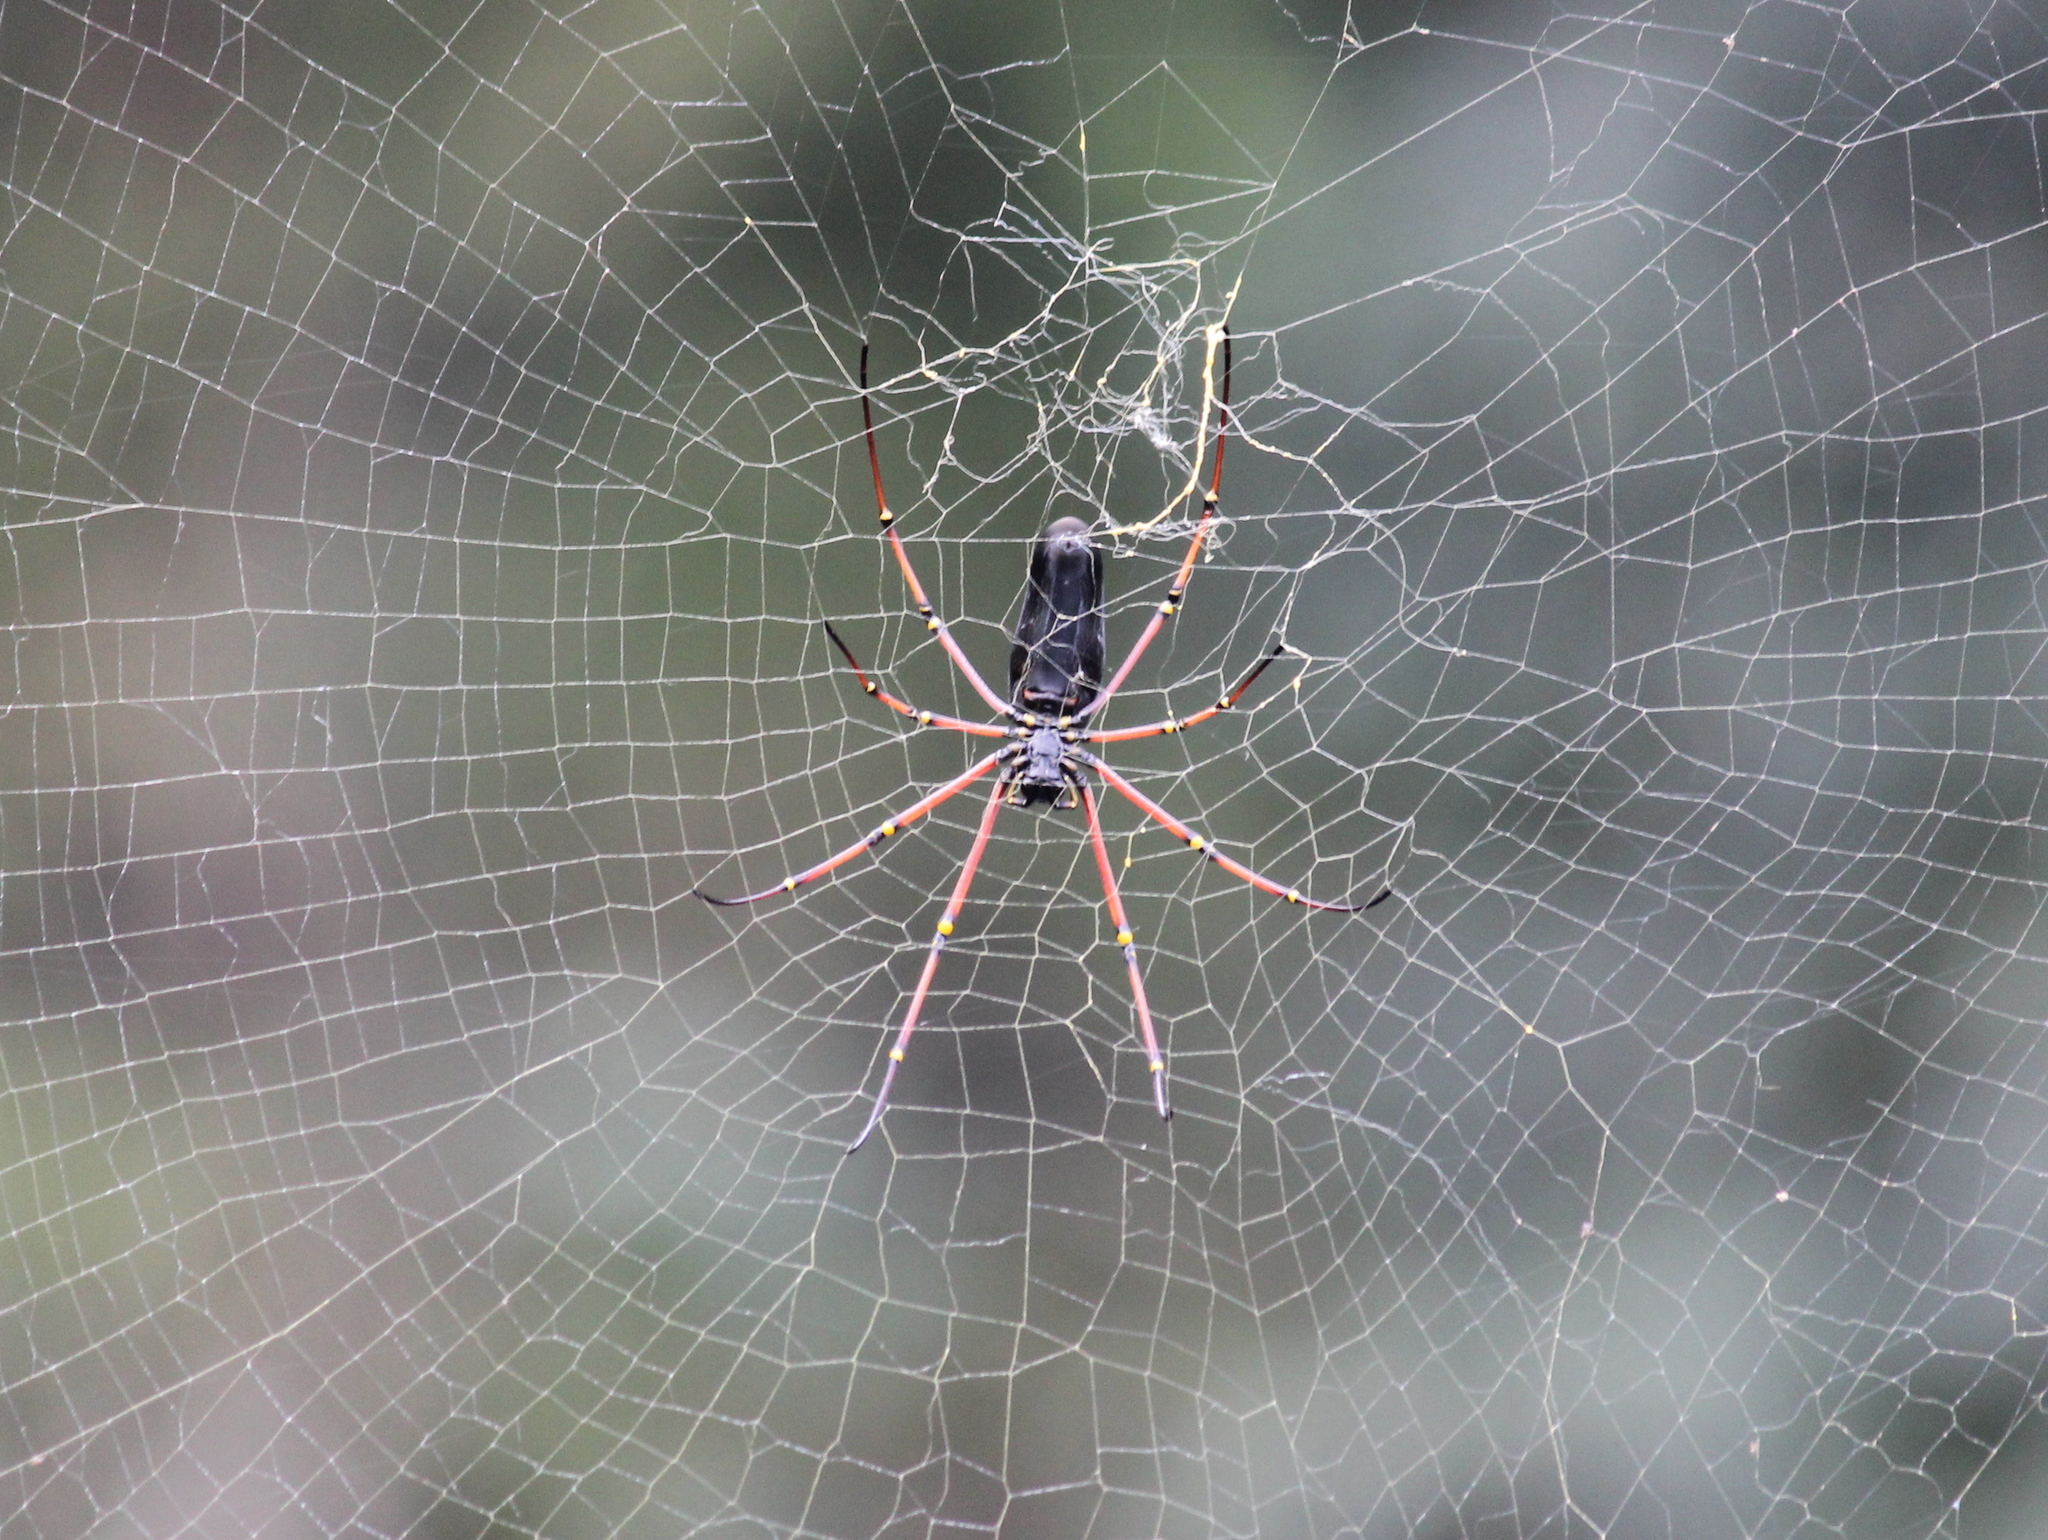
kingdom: Animalia
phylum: Arthropoda
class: Arachnida
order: Araneae
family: Araneidae
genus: Nephila
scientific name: Nephila kuhli
